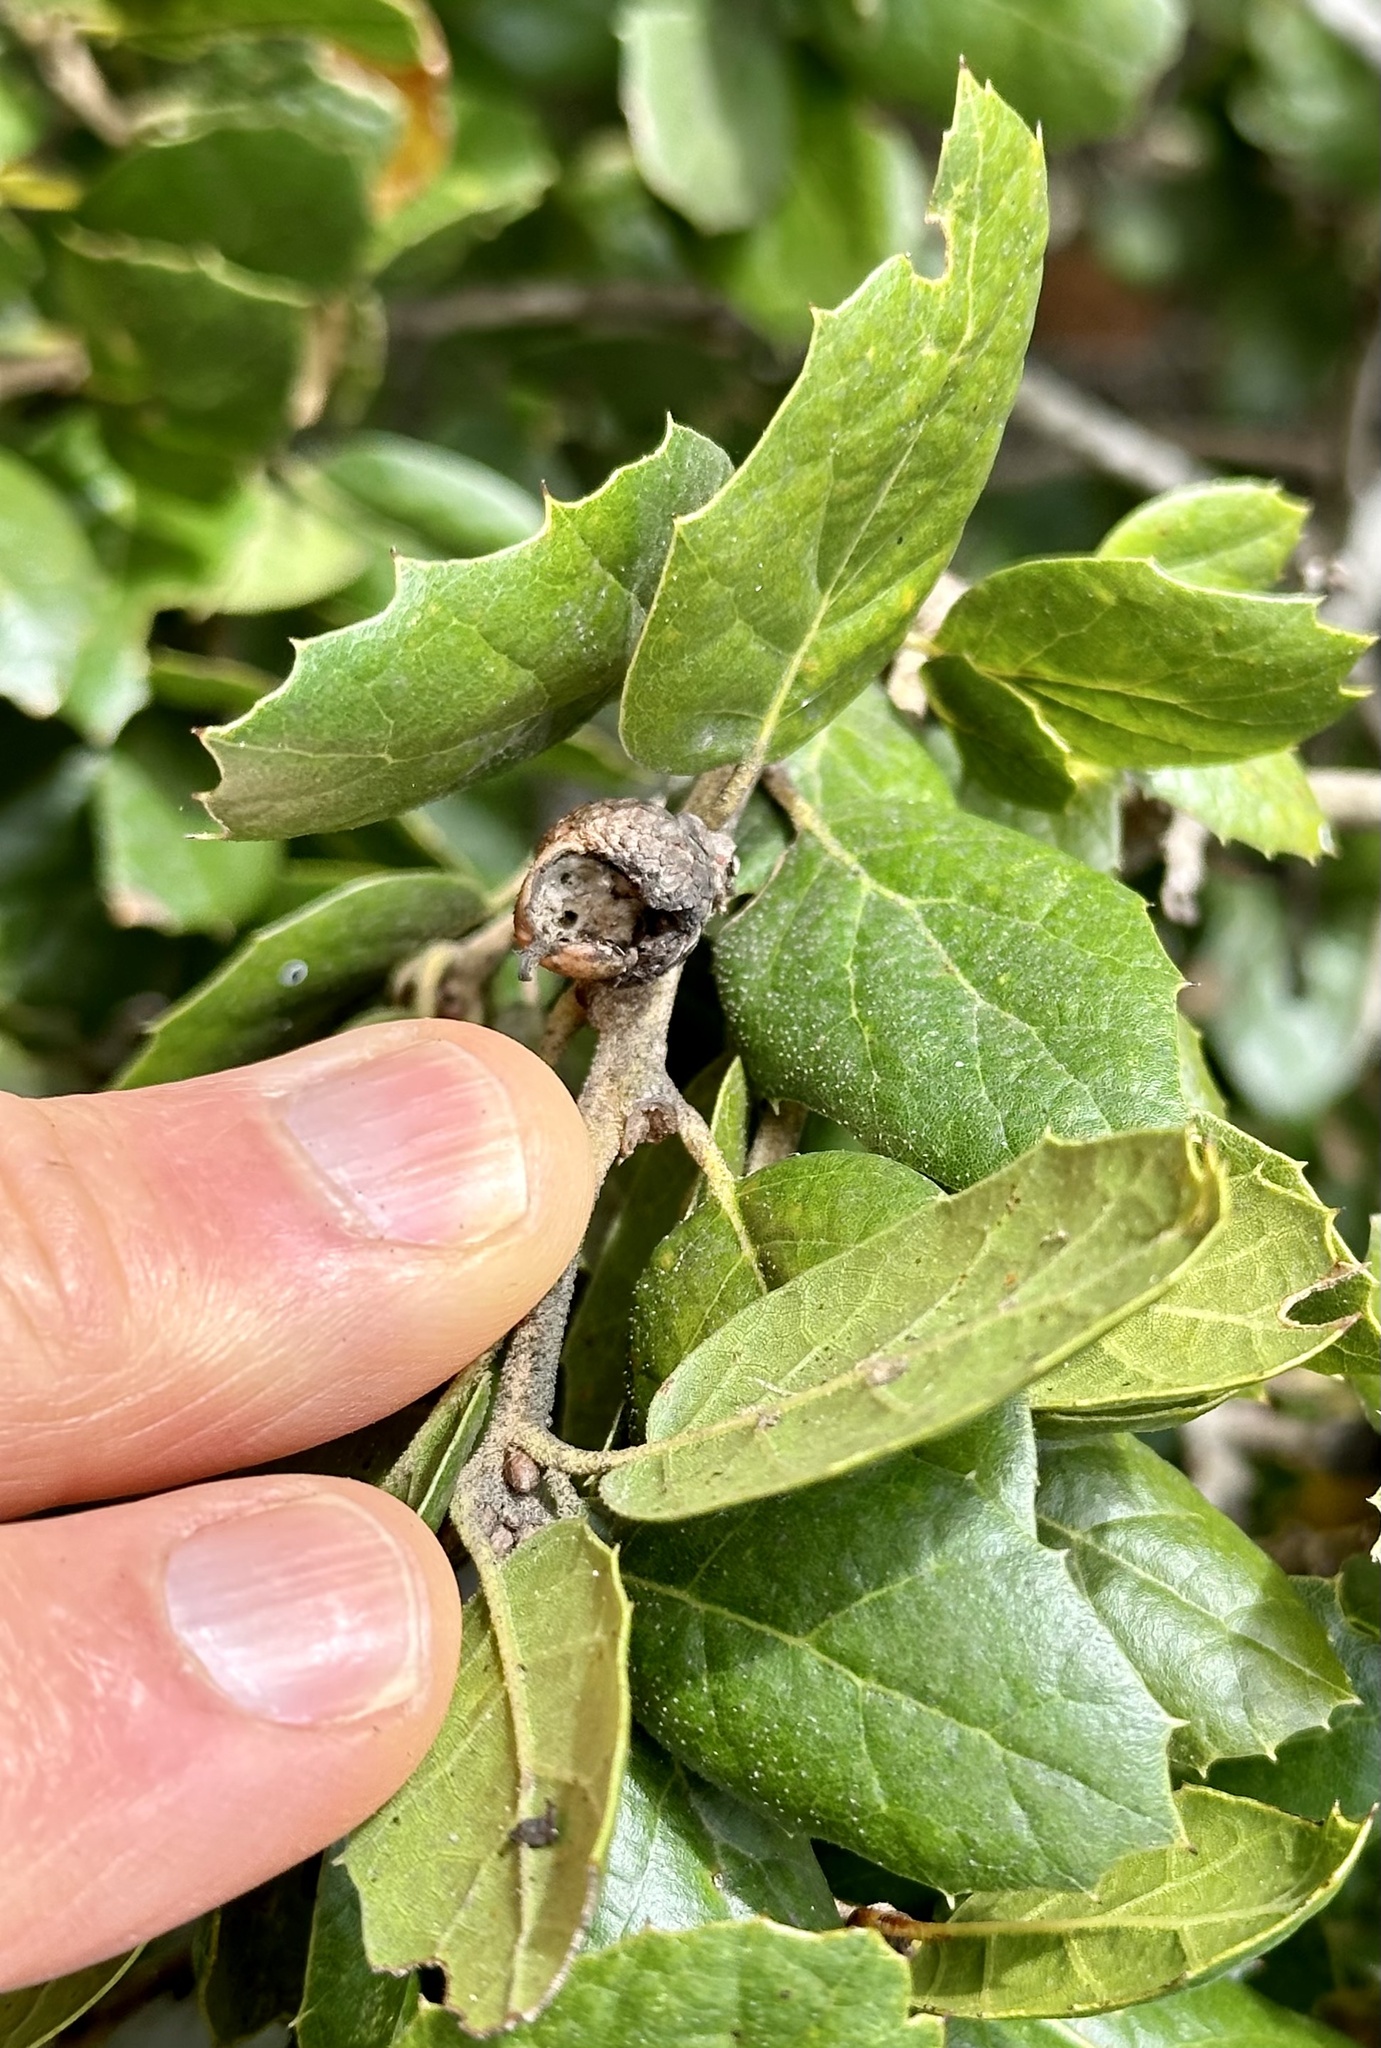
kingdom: Plantae
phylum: Tracheophyta
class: Magnoliopsida
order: Fagales
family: Fagaceae
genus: Quercus
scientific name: Quercus agrifolia
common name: California live oak
